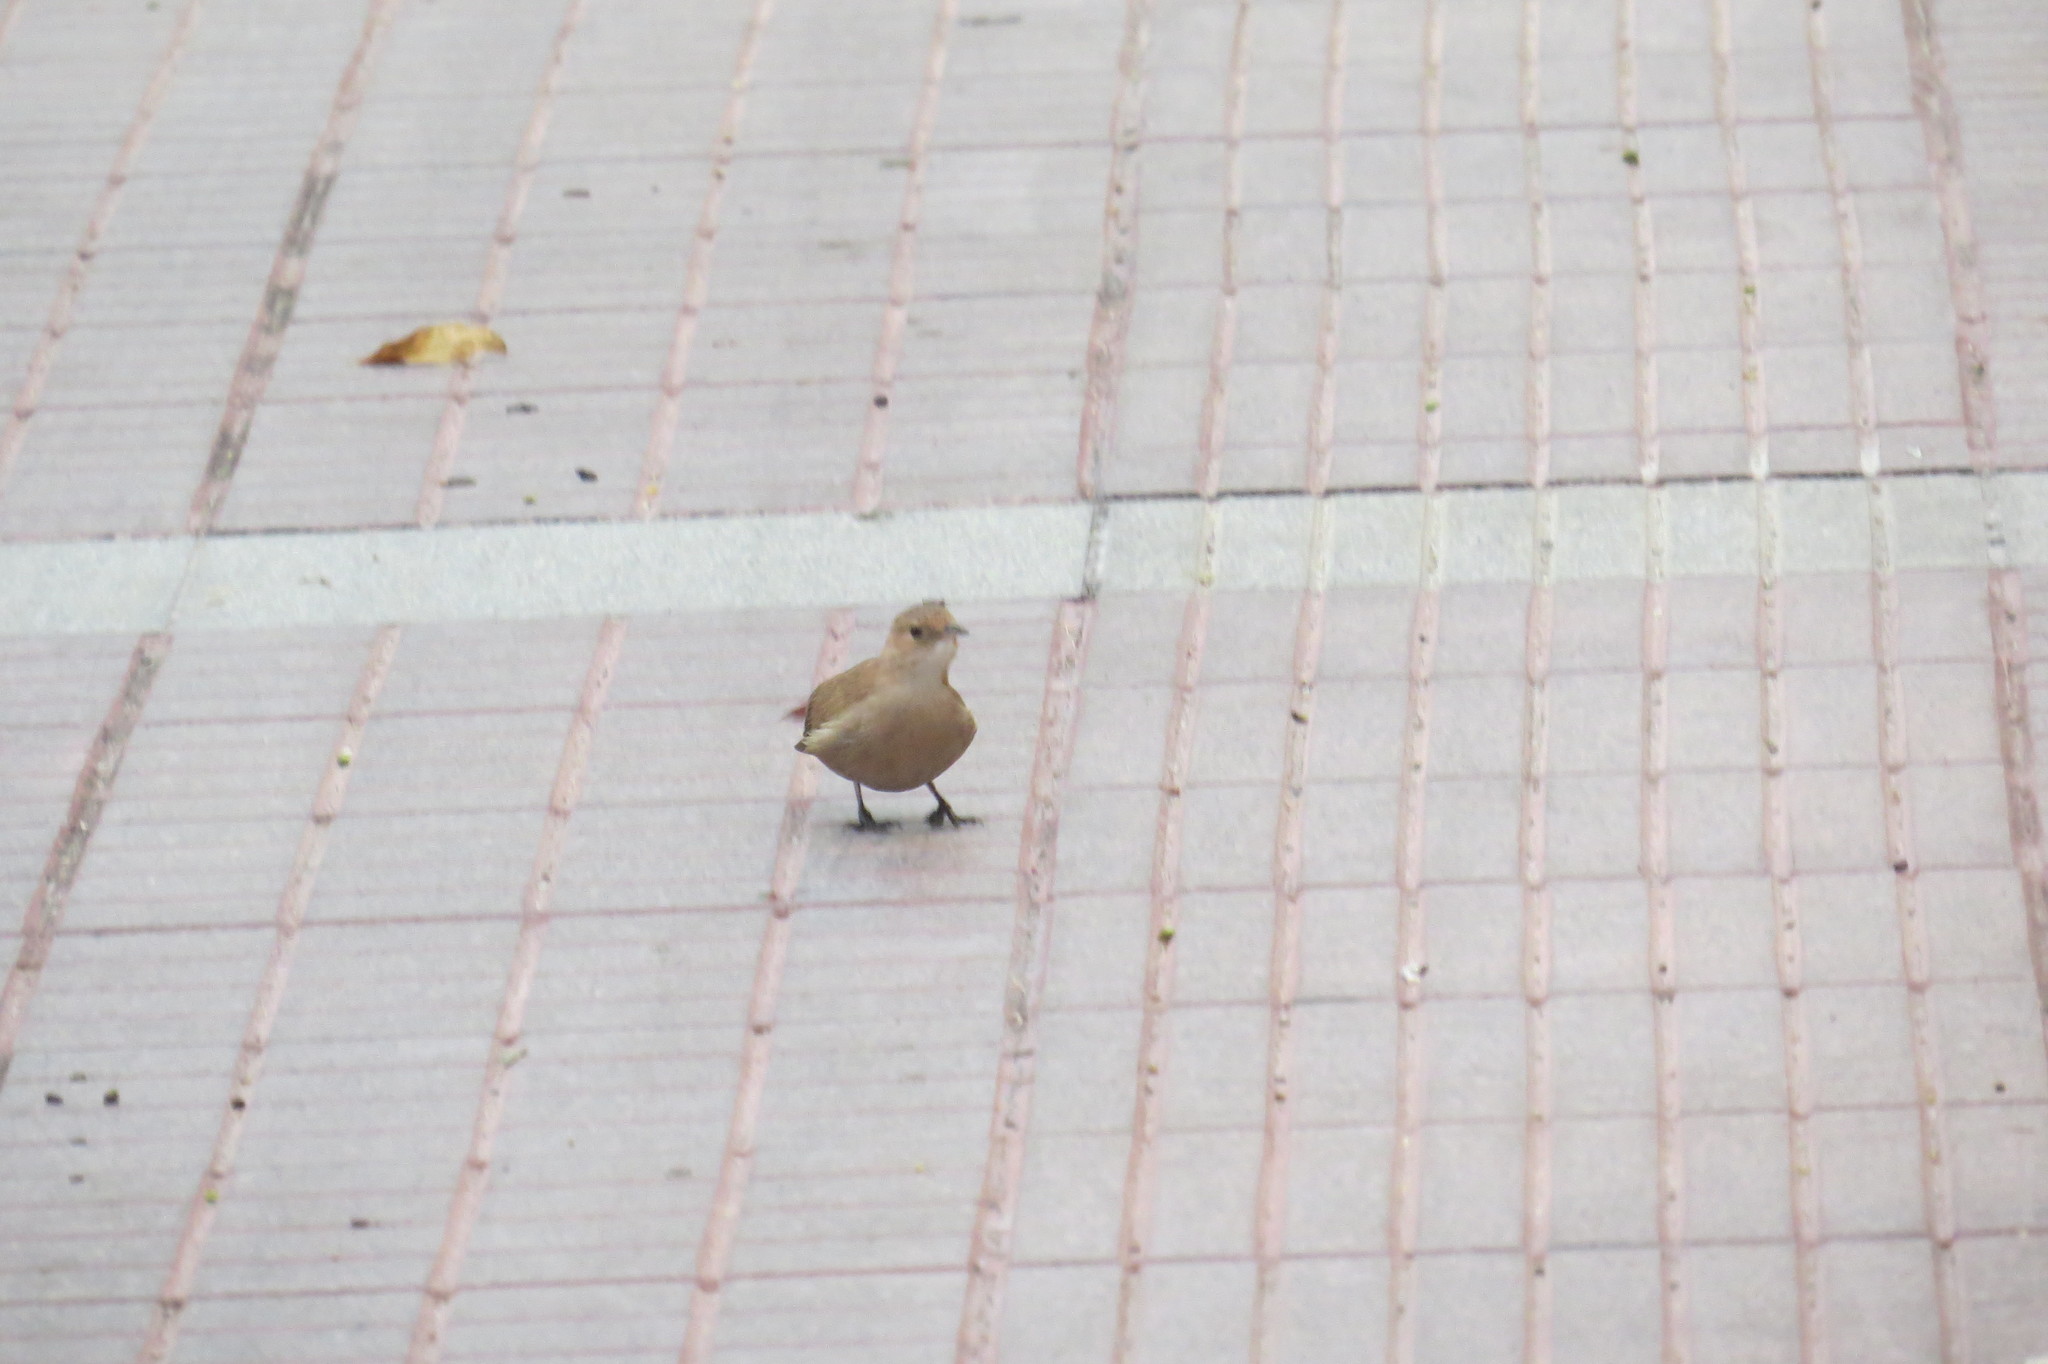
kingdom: Animalia
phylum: Chordata
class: Aves
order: Passeriformes
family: Furnariidae
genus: Furnarius
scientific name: Furnarius rufus
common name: Rufous hornero
